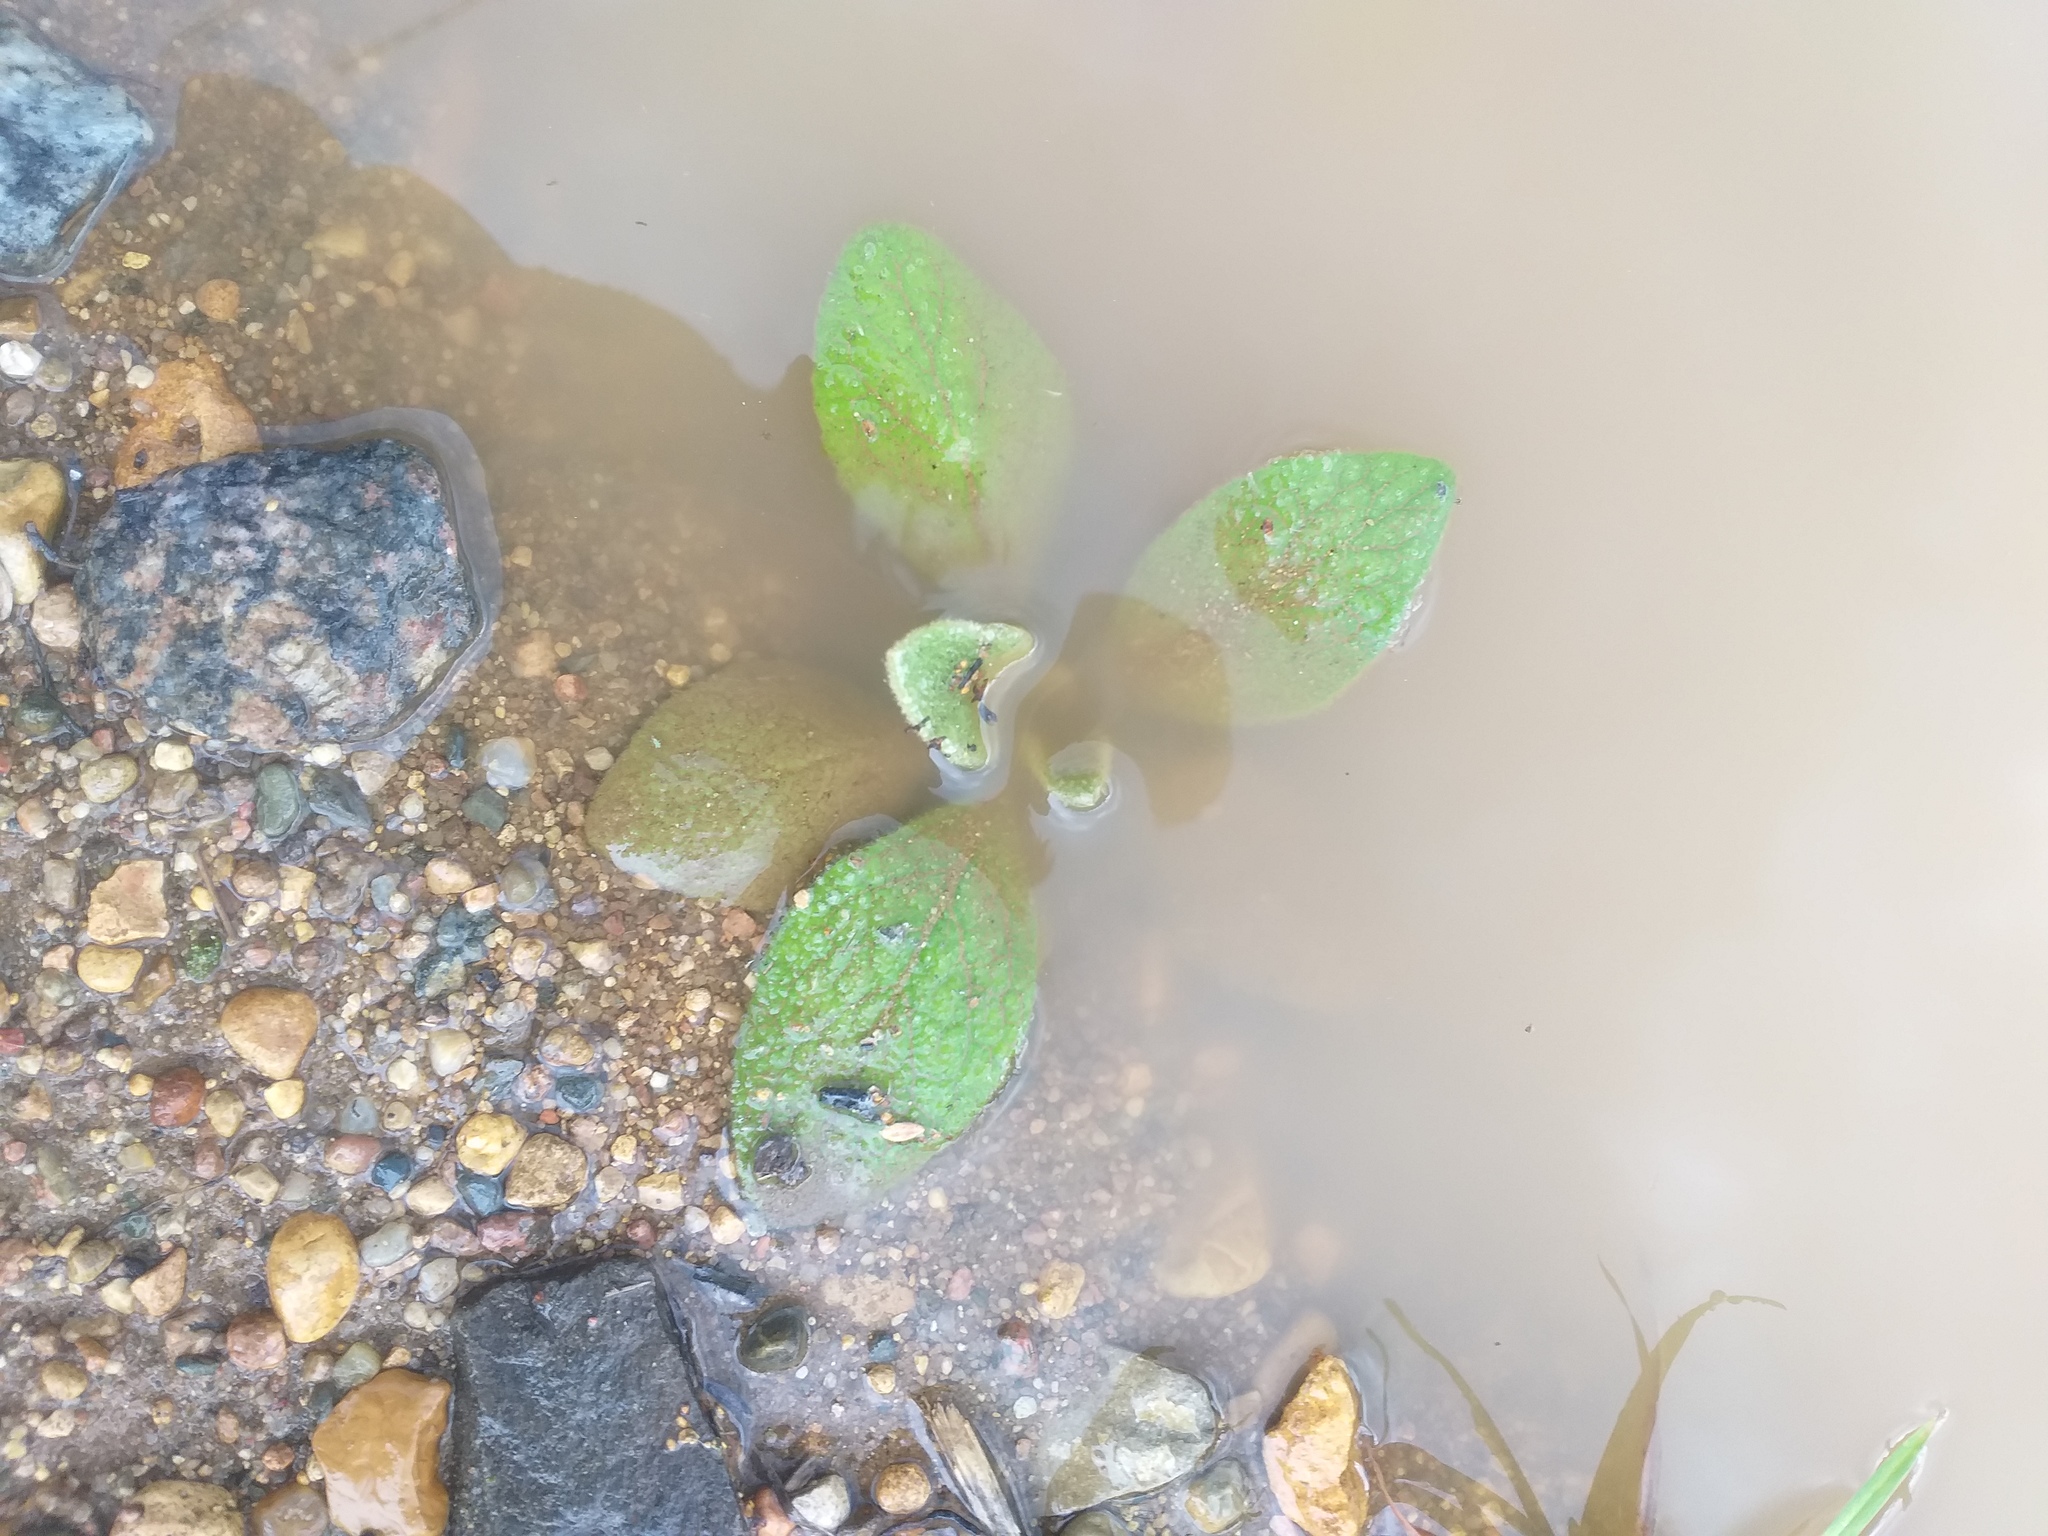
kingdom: Plantae
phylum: Tracheophyta
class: Magnoliopsida
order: Lamiales
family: Scrophulariaceae
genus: Verbascum
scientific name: Verbascum thapsus
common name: Common mullein
